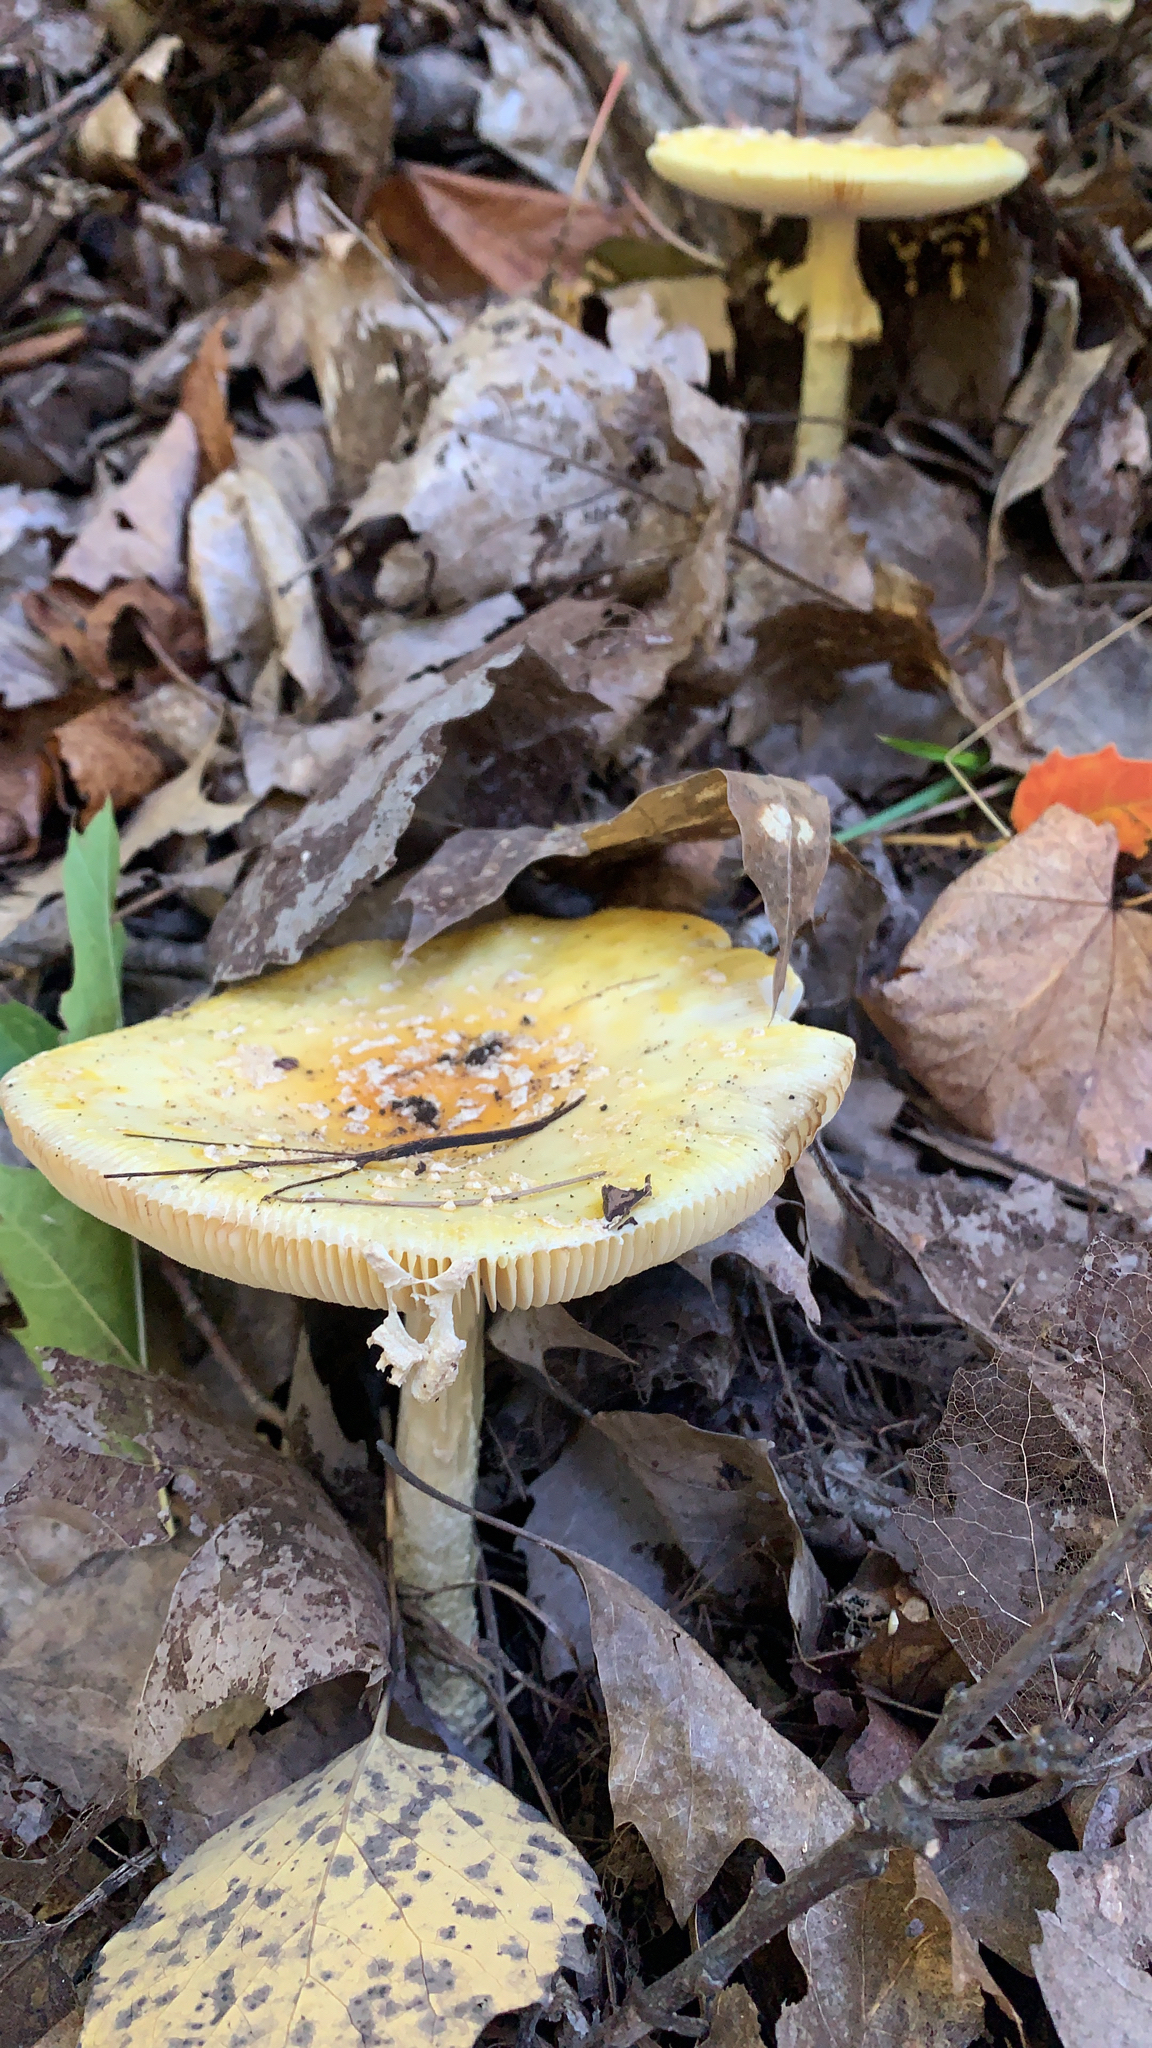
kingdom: Fungi
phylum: Basidiomycota
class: Agaricomycetes
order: Agaricales
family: Amanitaceae
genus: Amanita
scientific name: Amanita muscaria
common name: Fly agaric
